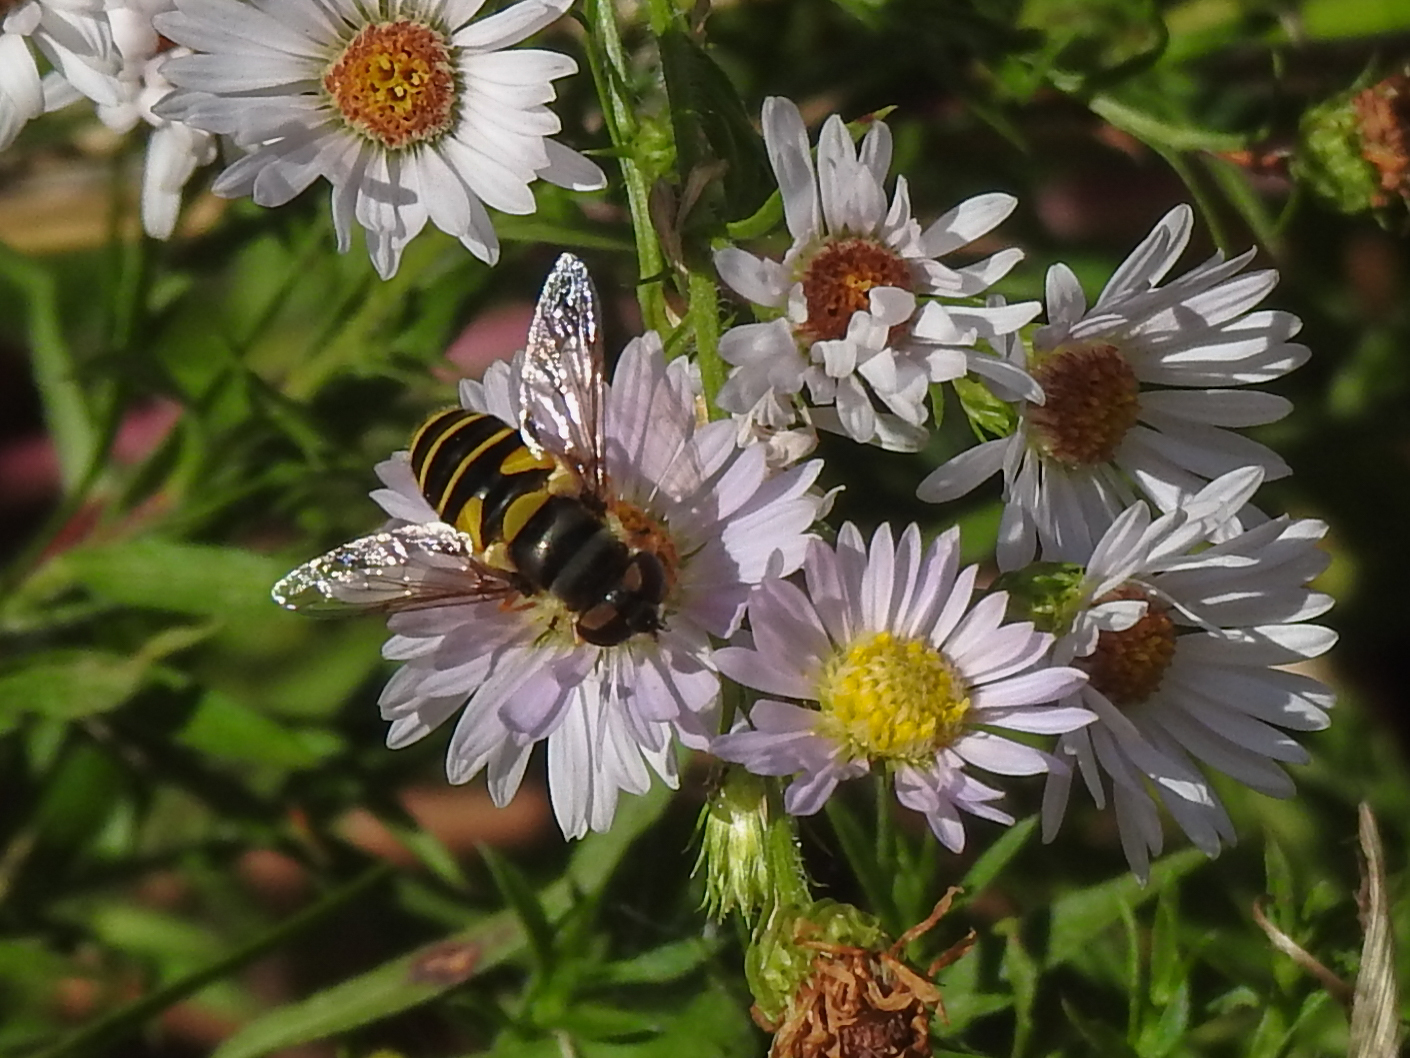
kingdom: Animalia
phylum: Arthropoda
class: Insecta
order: Diptera
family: Syrphidae
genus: Eristalis
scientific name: Eristalis transversa
